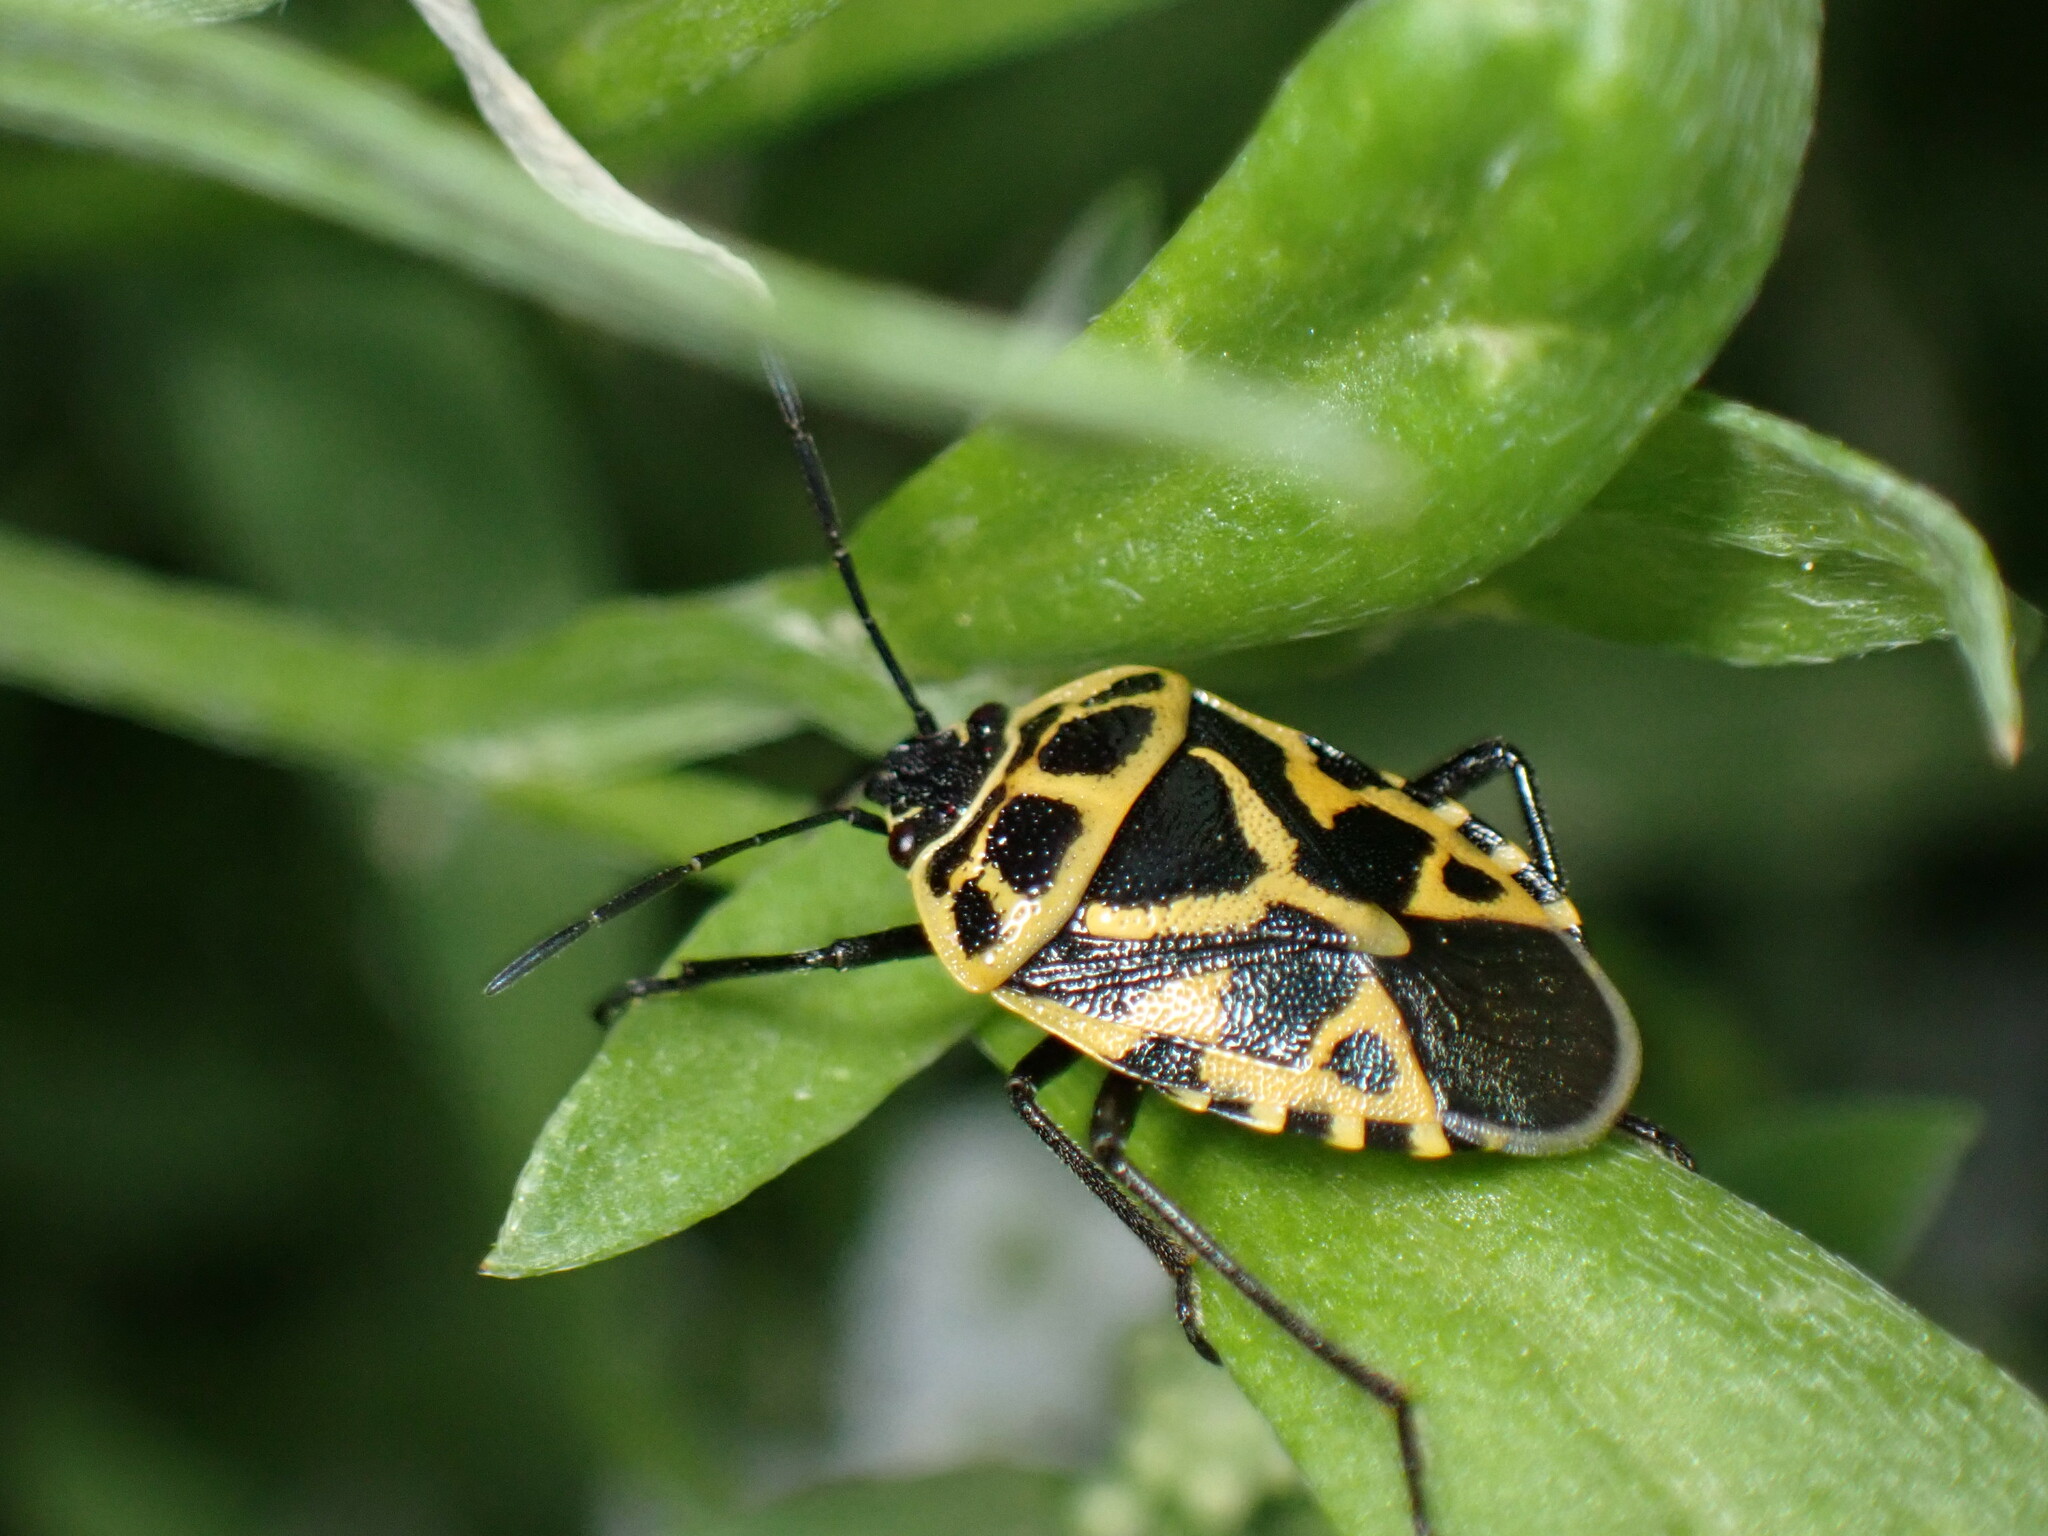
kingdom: Animalia
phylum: Arthropoda
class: Insecta
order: Hemiptera
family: Pentatomidae
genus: Eurydema
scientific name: Eurydema ventralis
